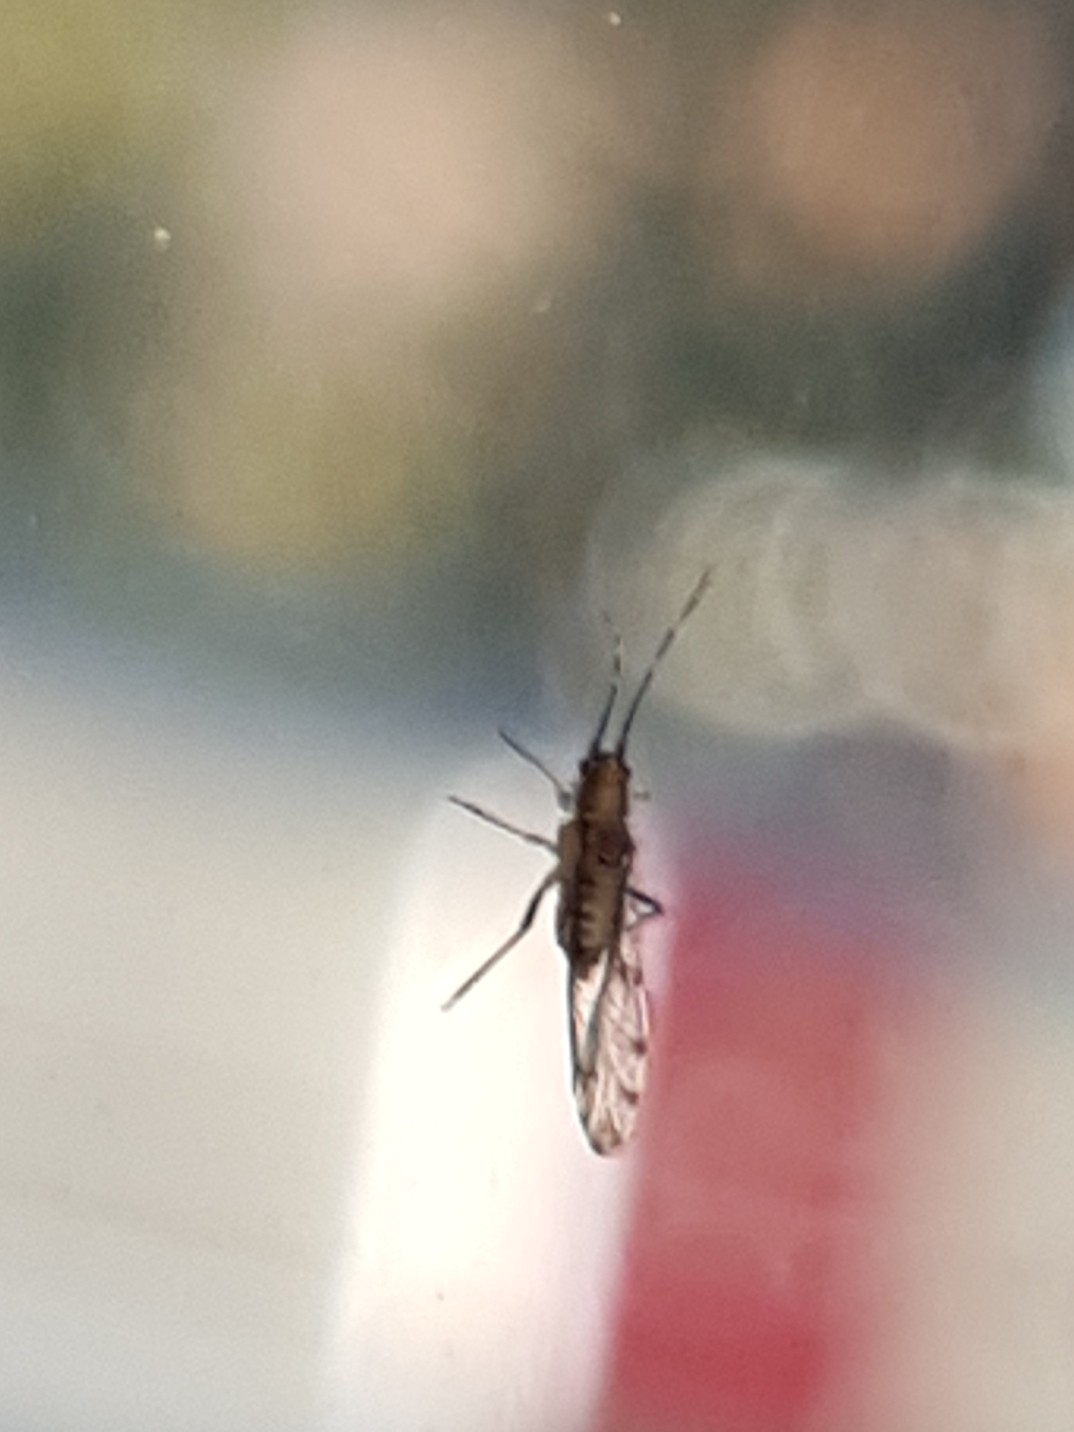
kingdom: Animalia
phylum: Arthropoda
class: Insecta
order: Hemiptera
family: Aphididae
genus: Eucallipterus
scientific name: Eucallipterus tiliae
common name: Aphid
